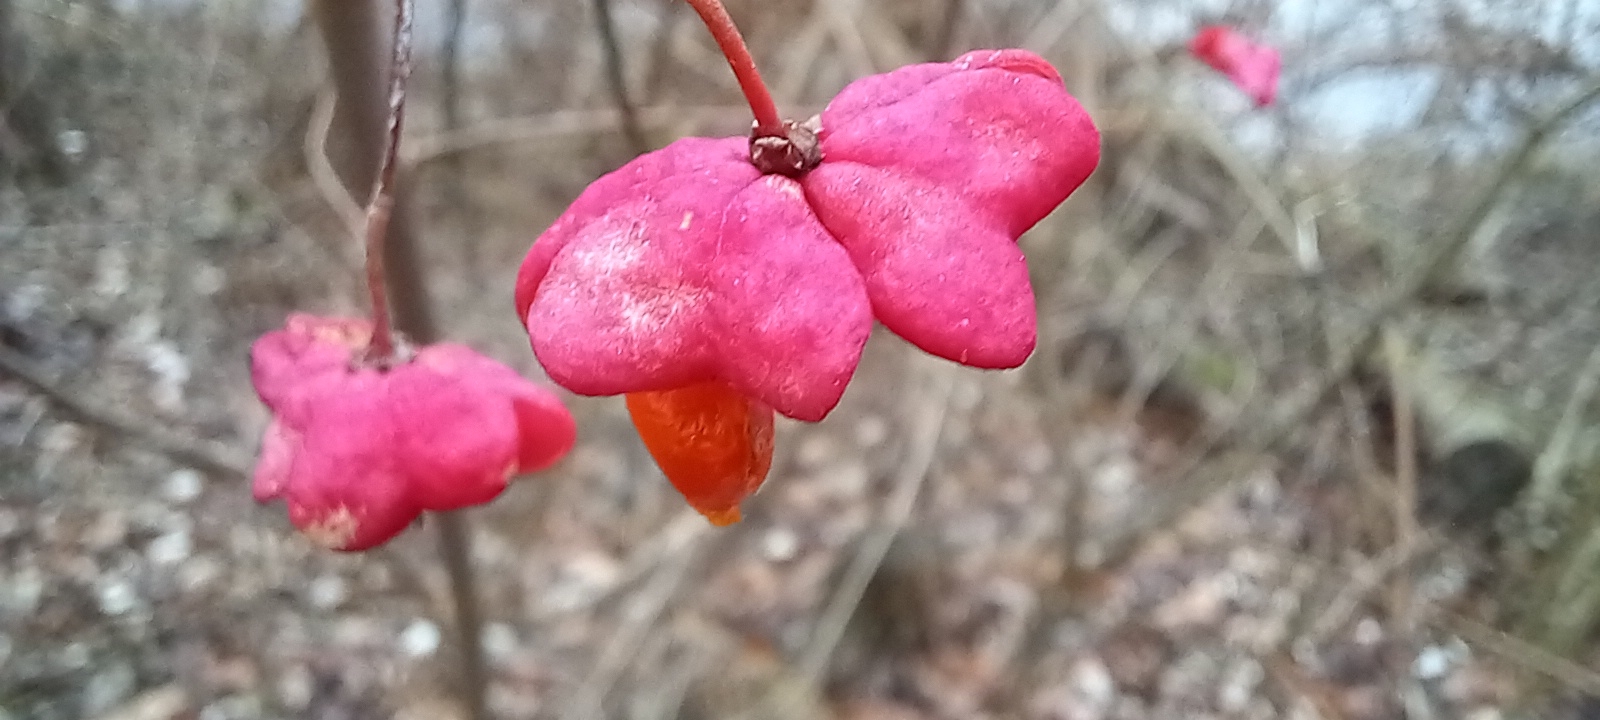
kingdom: Plantae
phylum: Tracheophyta
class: Magnoliopsida
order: Celastrales
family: Celastraceae
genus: Euonymus
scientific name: Euonymus europaeus
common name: Spindle
